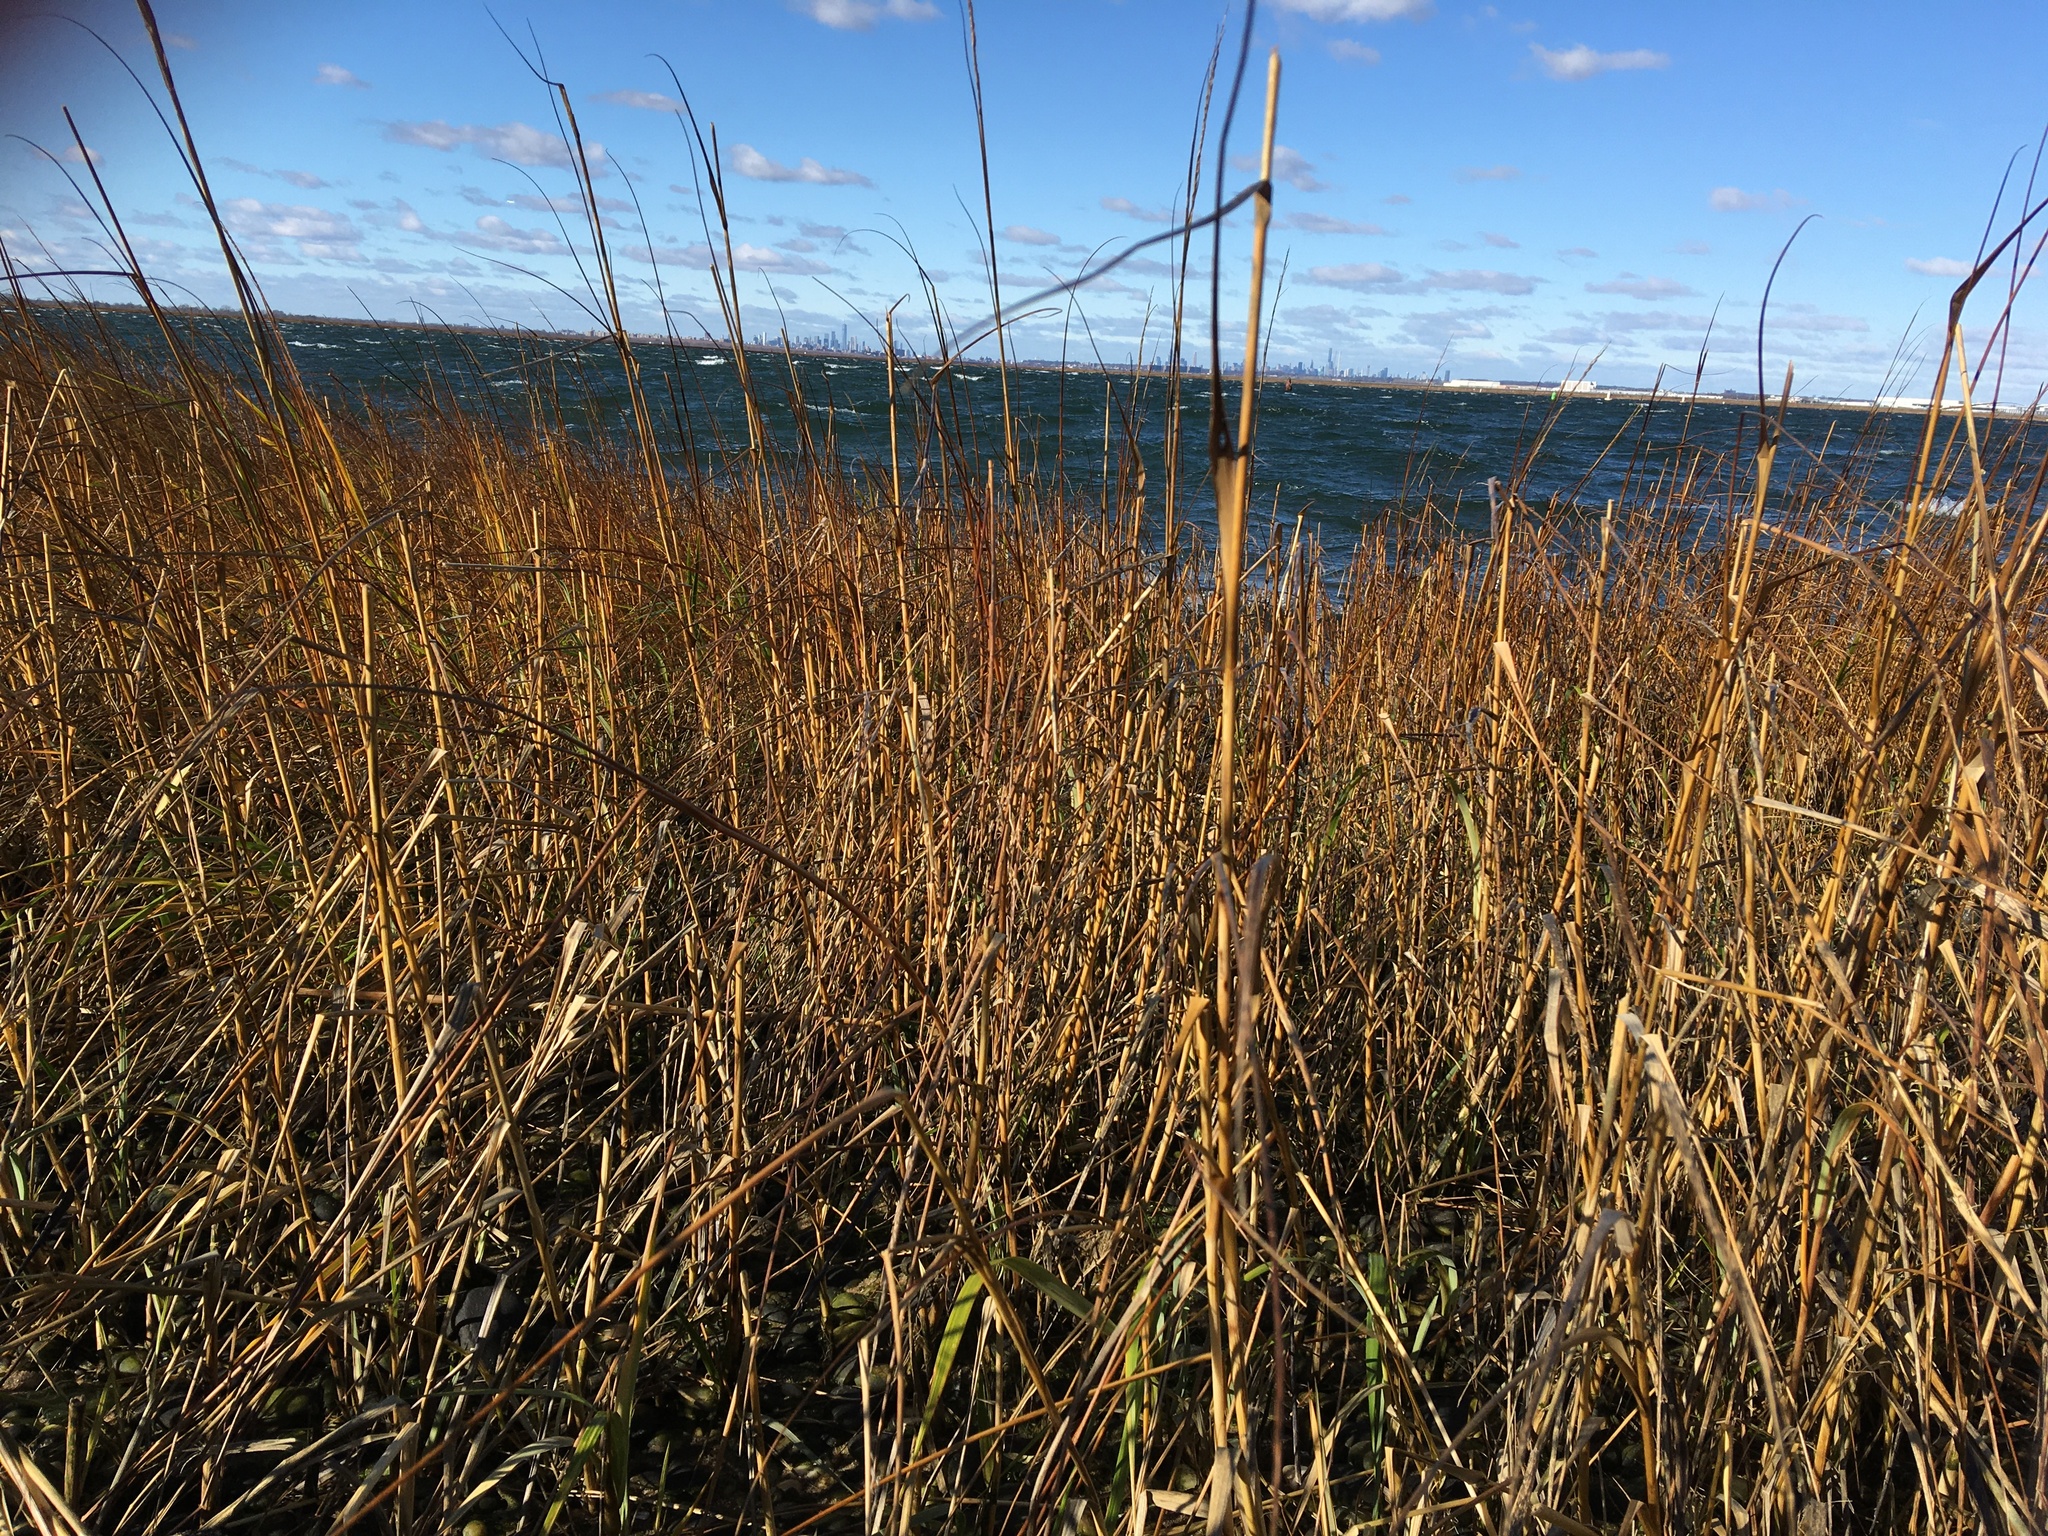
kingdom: Plantae
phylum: Tracheophyta
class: Liliopsida
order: Poales
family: Poaceae
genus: Sporobolus
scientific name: Sporobolus alterniflorus
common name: Atlantic cordgrass
